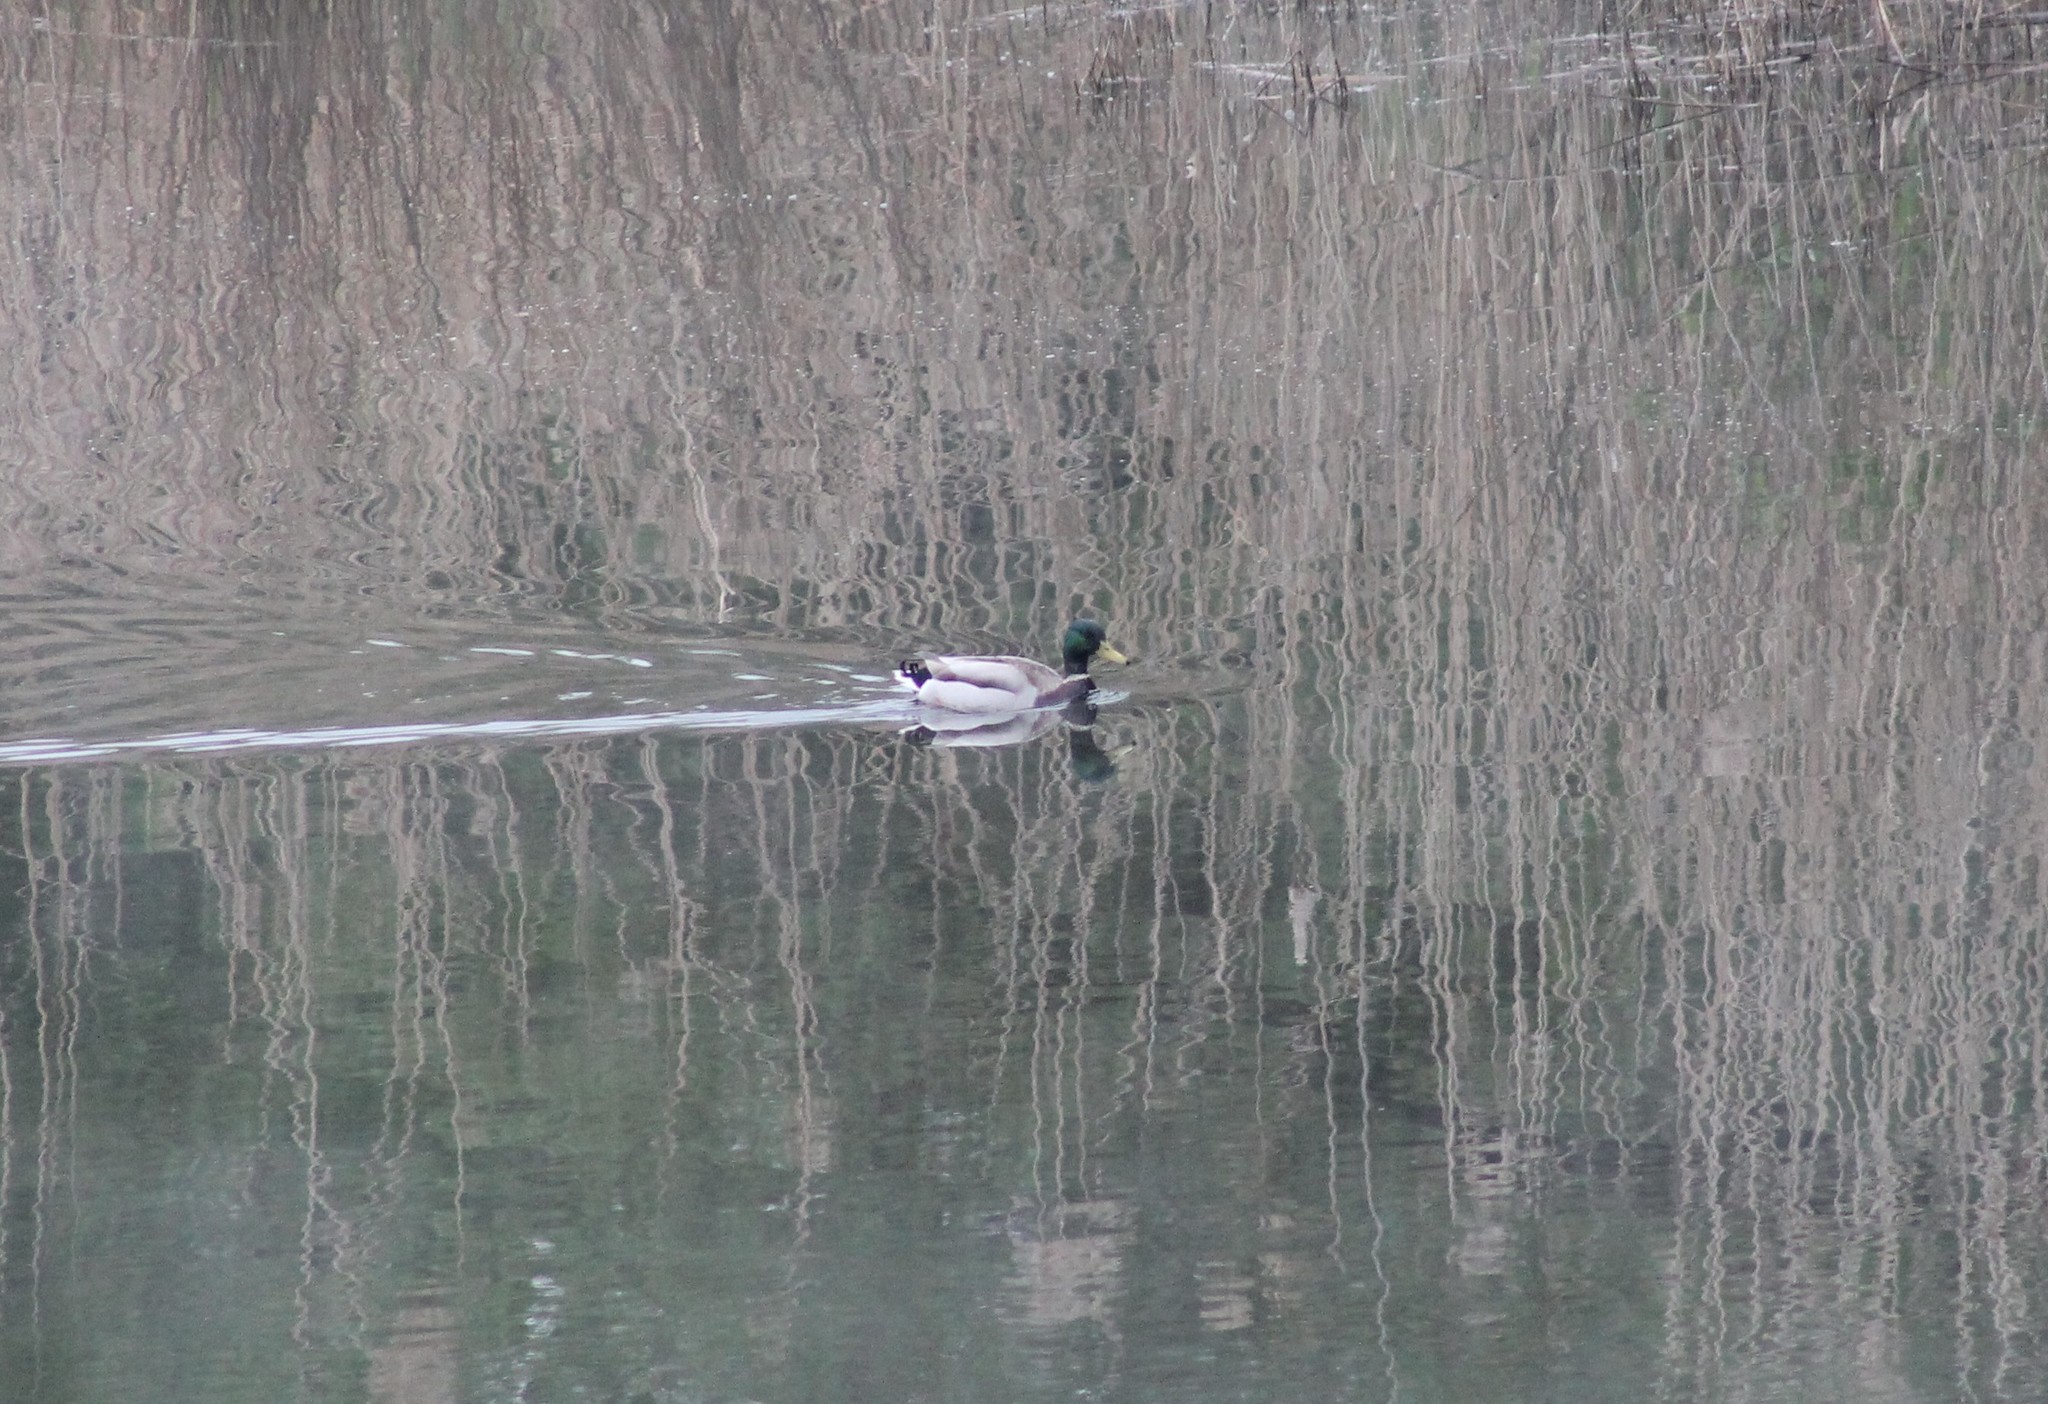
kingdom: Animalia
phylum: Chordata
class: Aves
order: Anseriformes
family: Anatidae
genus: Anas
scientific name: Anas platyrhynchos
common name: Mallard
